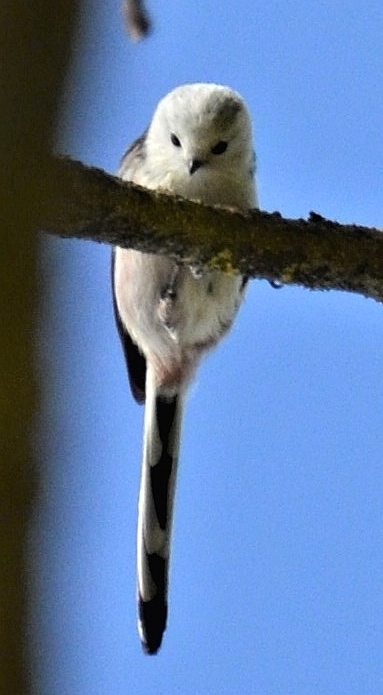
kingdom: Animalia
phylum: Chordata
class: Aves
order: Passeriformes
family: Aegithalidae
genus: Aegithalos
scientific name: Aegithalos caudatus
